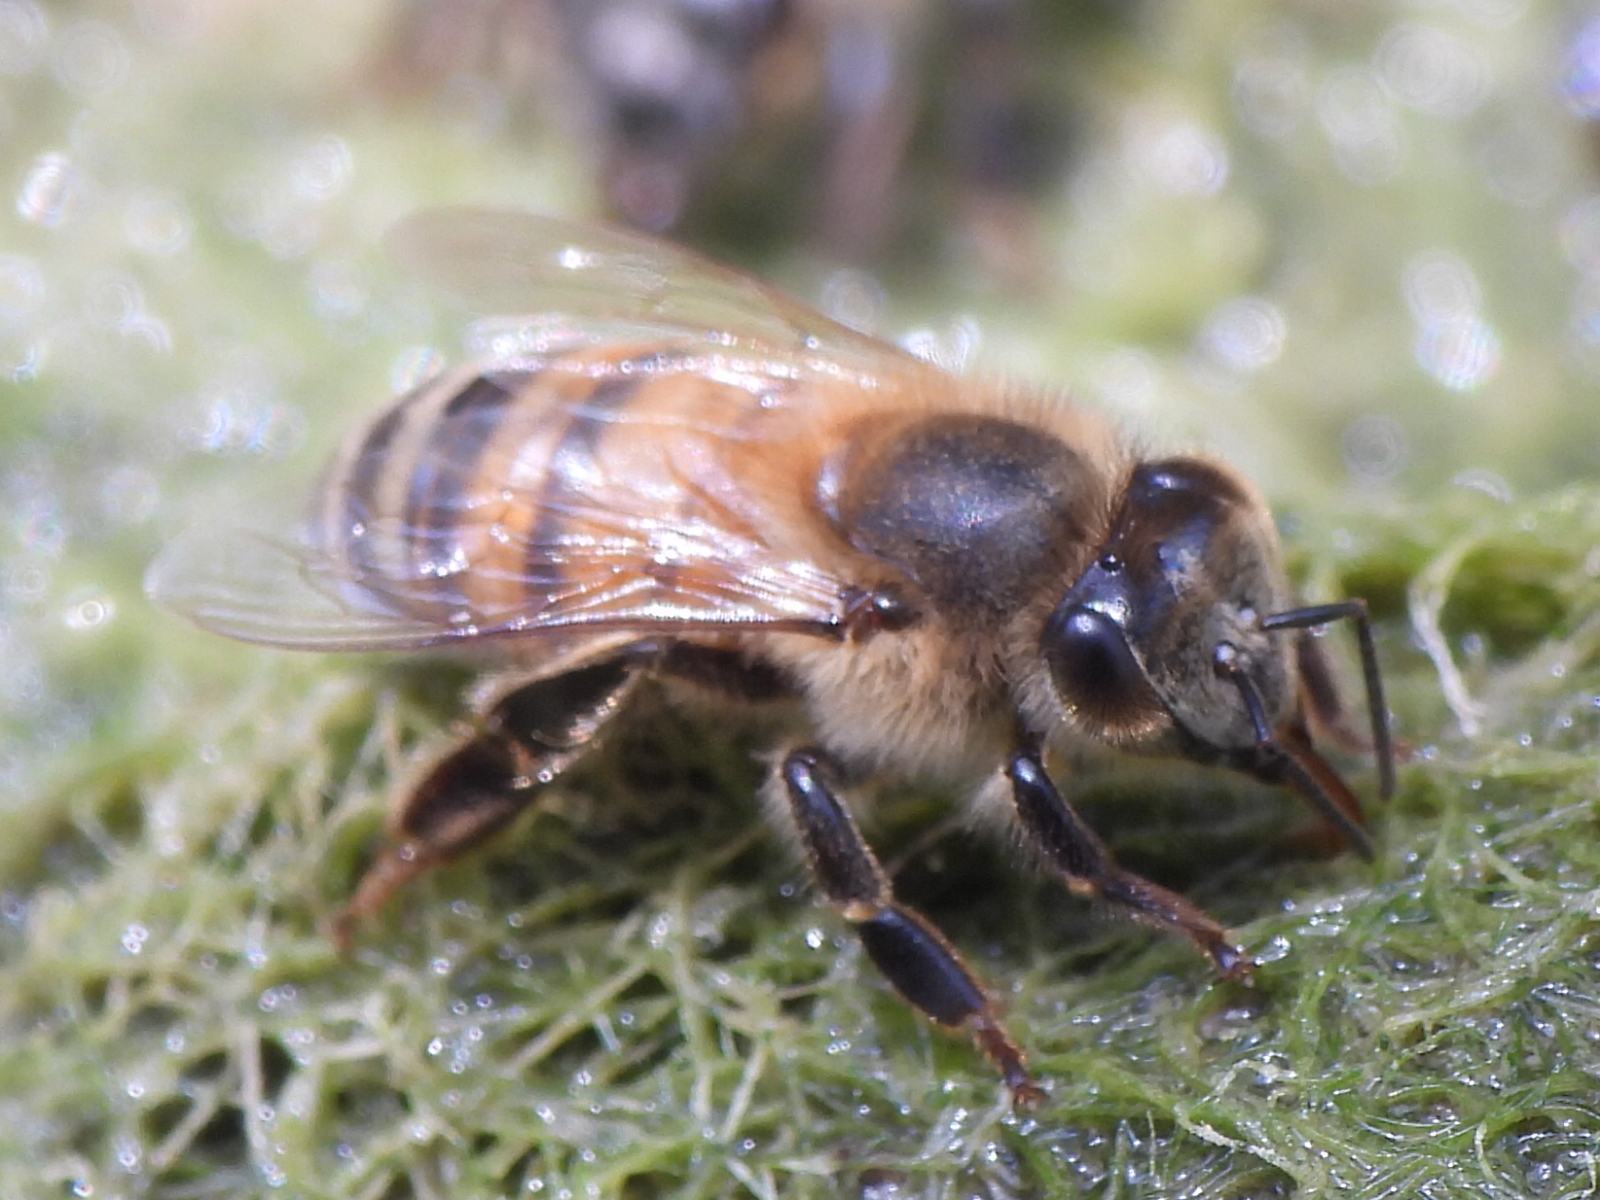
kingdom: Animalia
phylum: Arthropoda
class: Insecta
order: Hymenoptera
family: Apidae
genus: Apis
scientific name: Apis mellifera
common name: Honey bee
